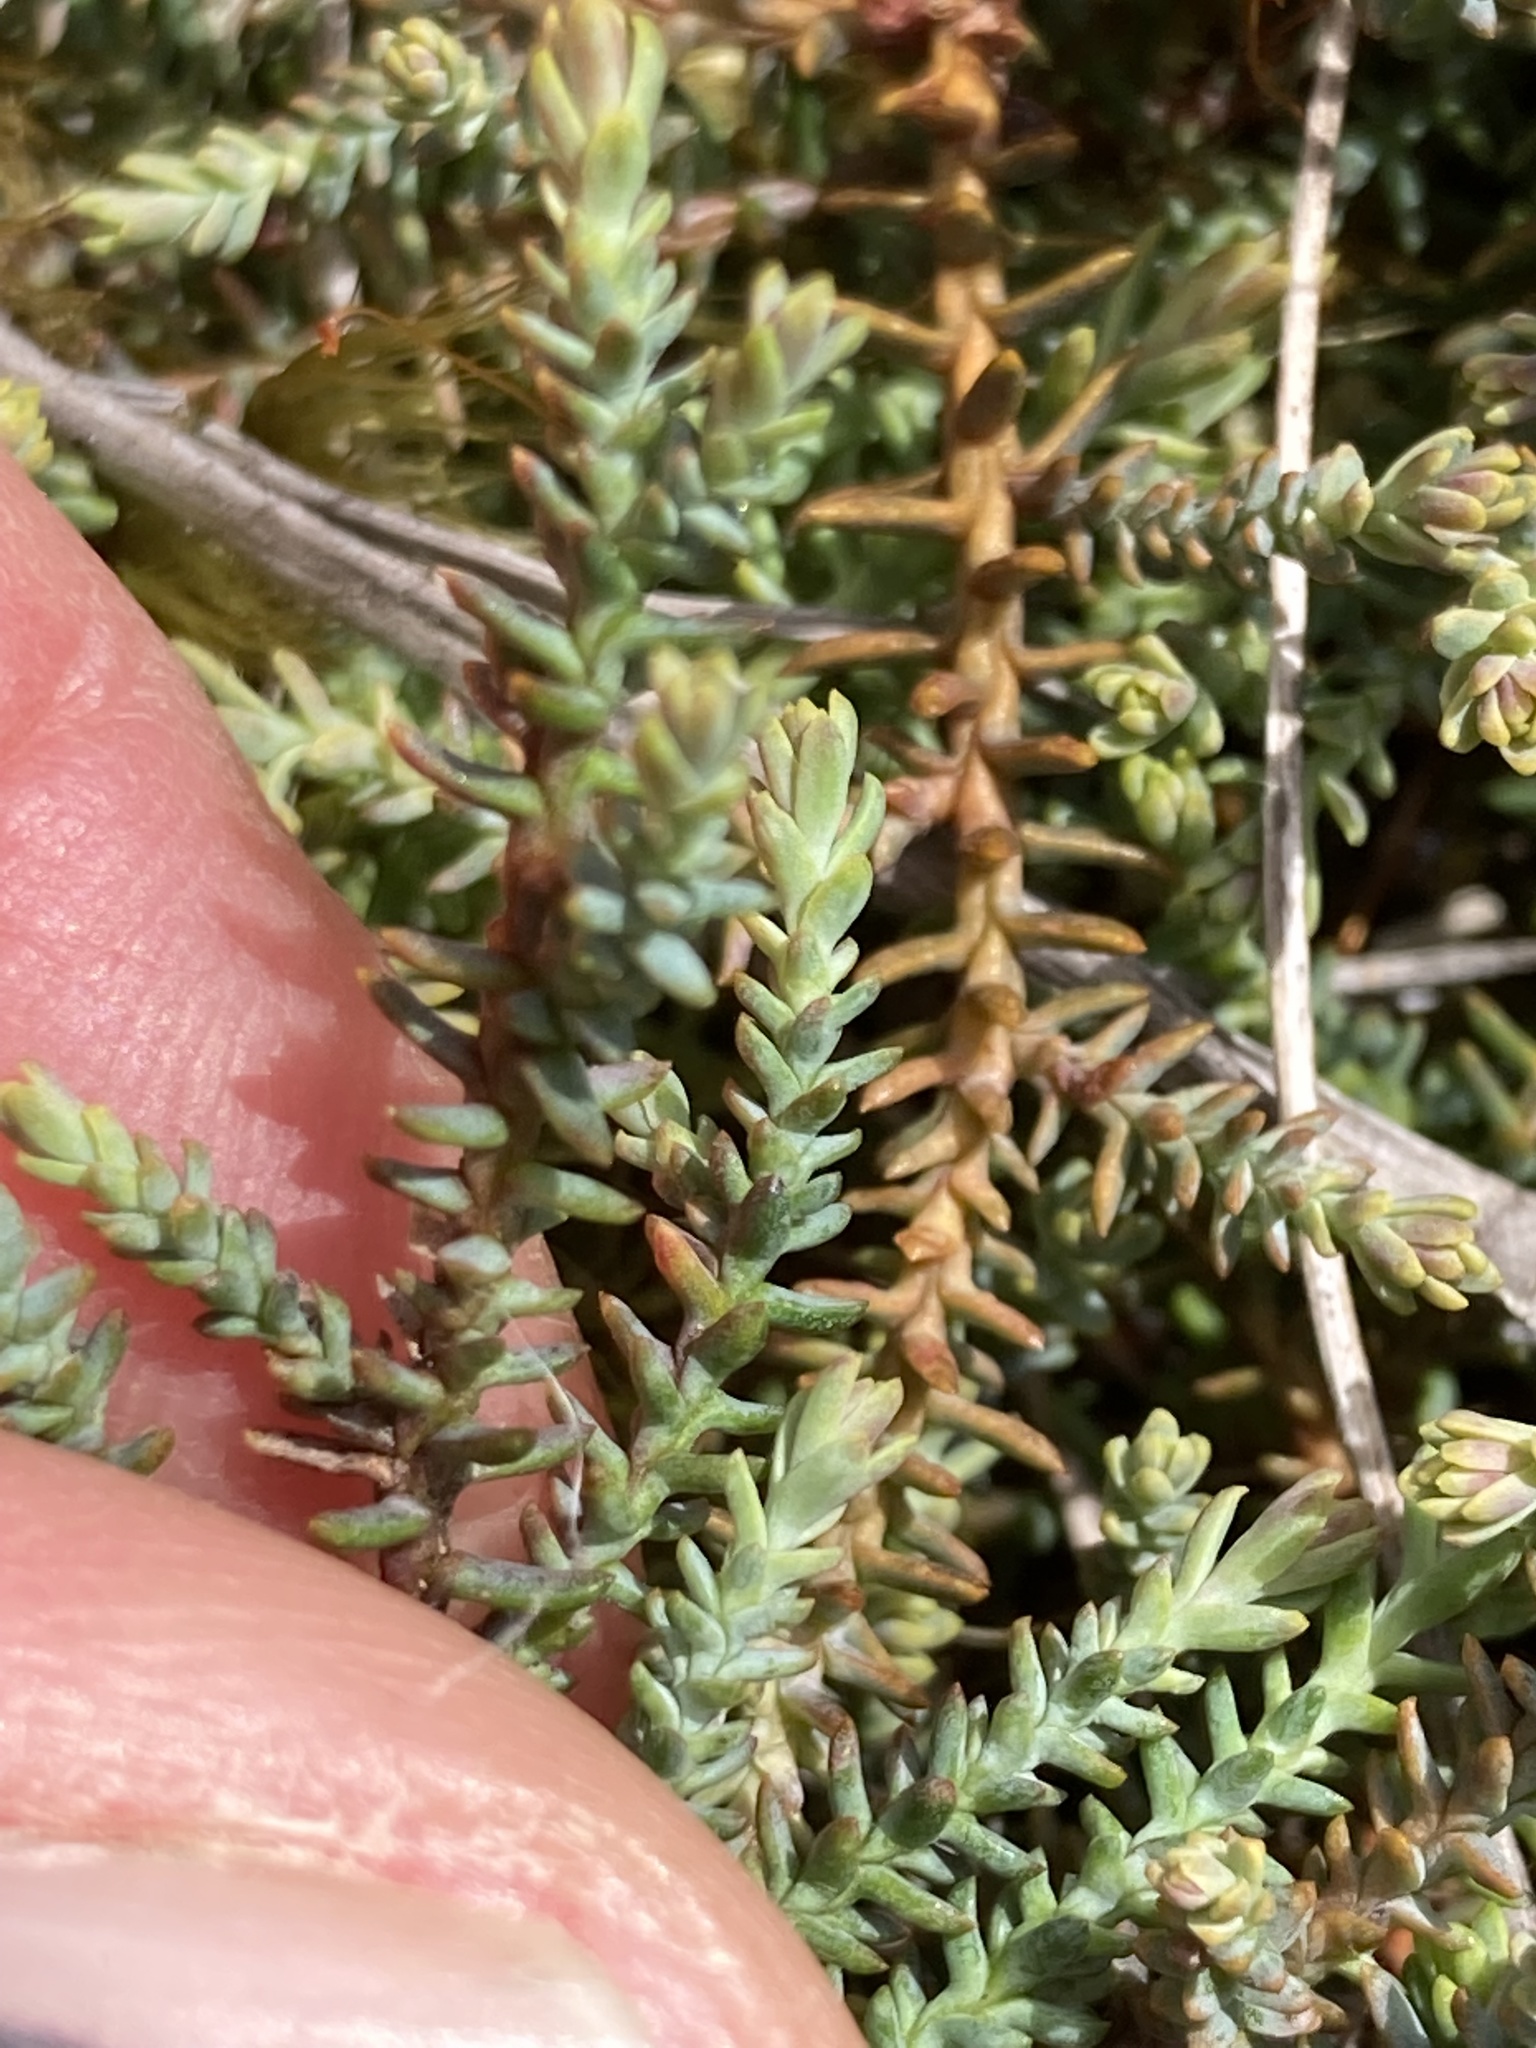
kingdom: Plantae
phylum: Tracheophyta
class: Pinopsida
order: Pinales
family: Podocarpaceae
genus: Lepidothamnus
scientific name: Lepidothamnus laxifolius
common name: Pygmy pine
